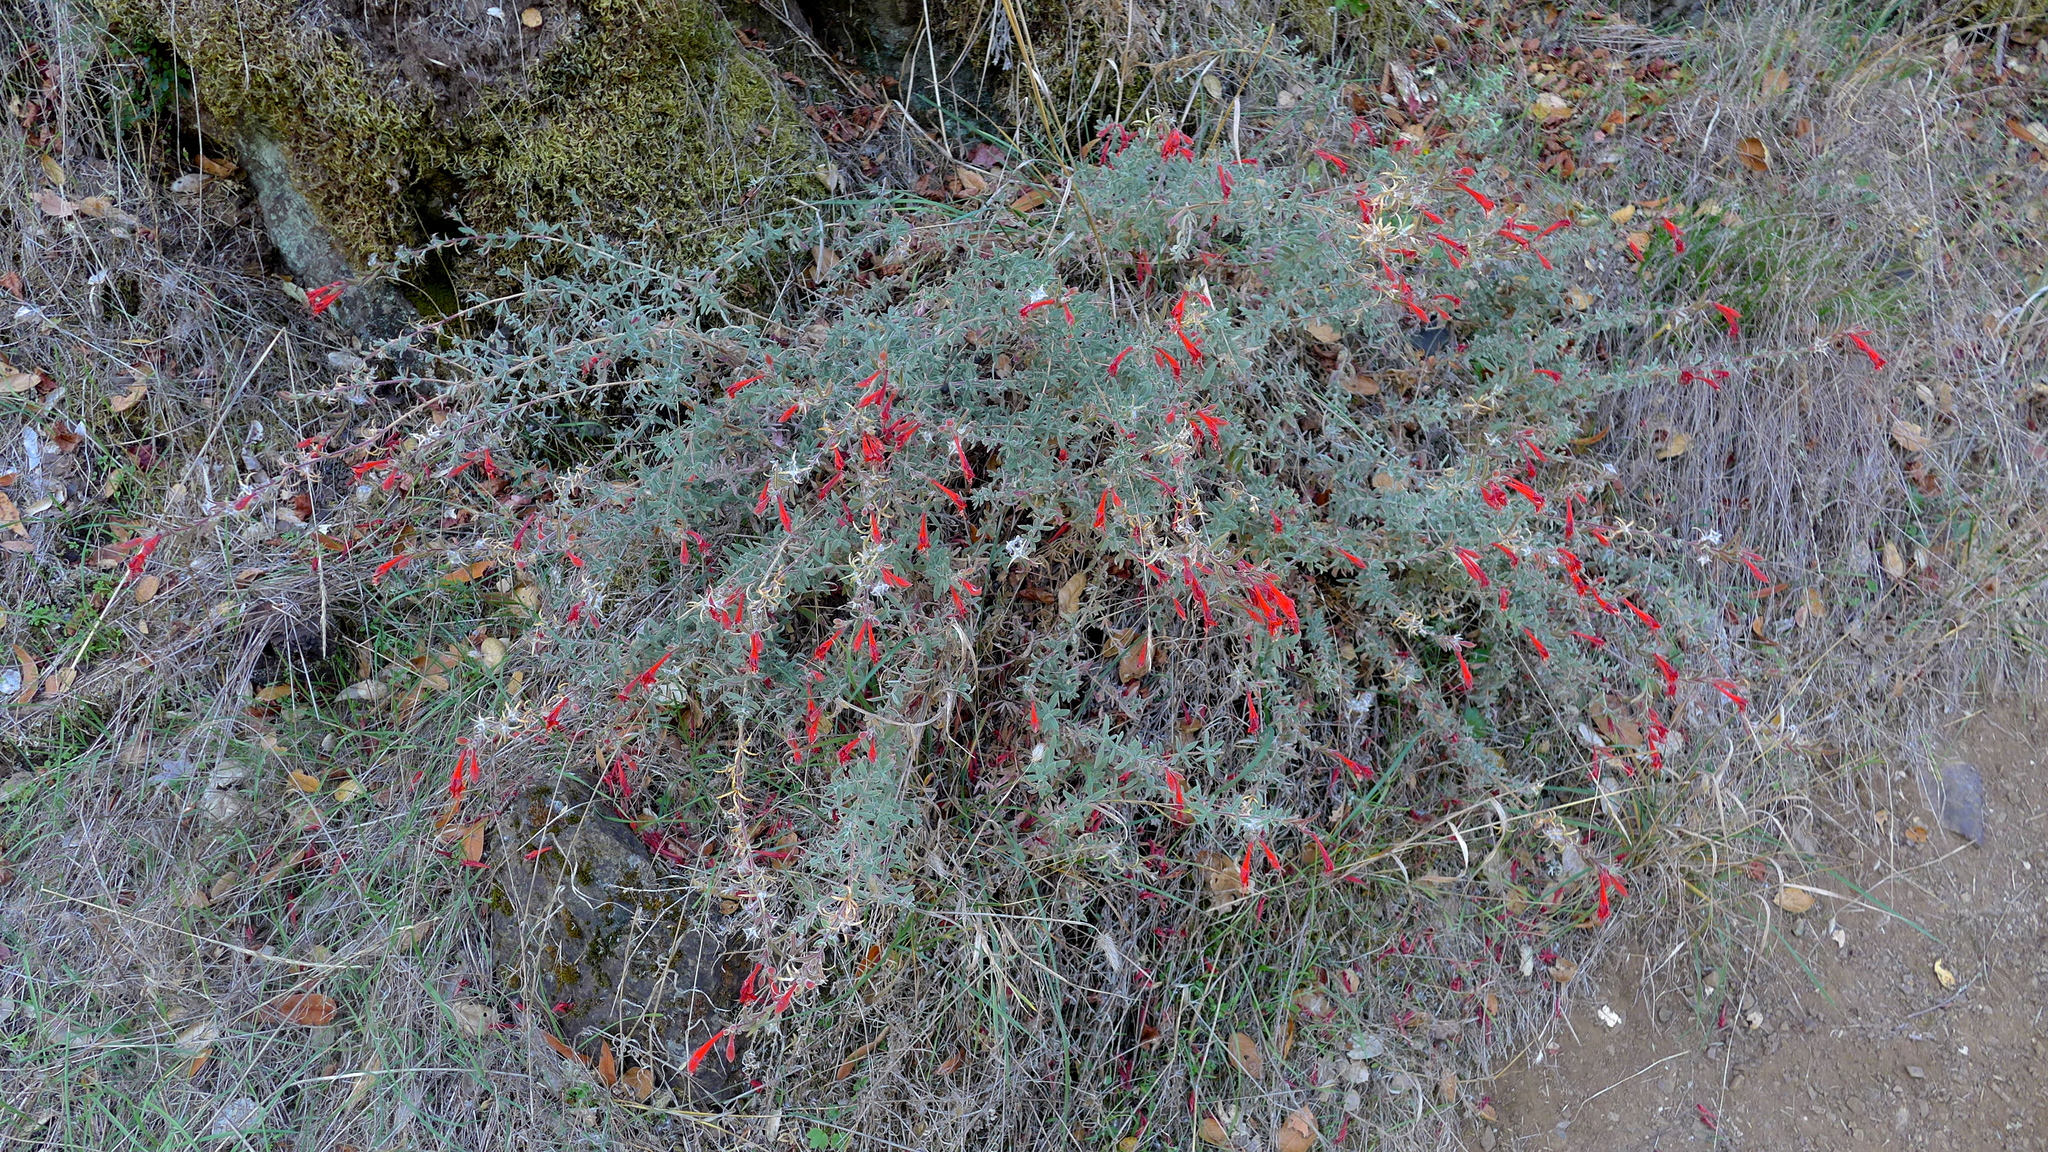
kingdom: Plantae
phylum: Tracheophyta
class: Magnoliopsida
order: Myrtales
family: Onagraceae
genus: Epilobium
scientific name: Epilobium canum
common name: California-fuchsia
